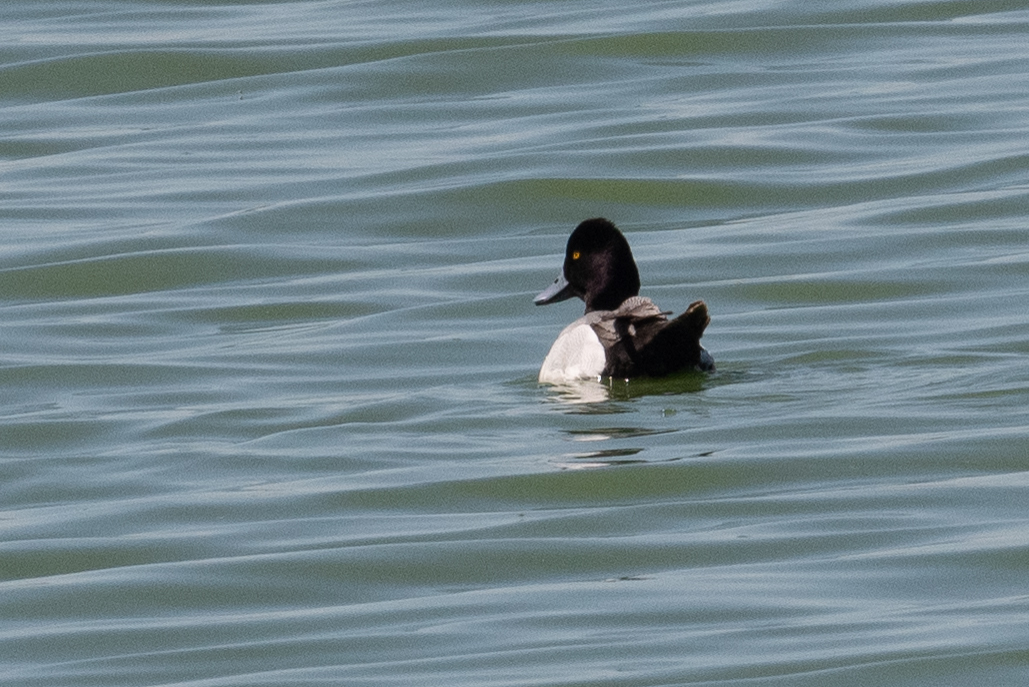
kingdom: Animalia
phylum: Chordata
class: Aves
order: Anseriformes
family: Anatidae
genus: Aythya
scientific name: Aythya affinis
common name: Lesser scaup
